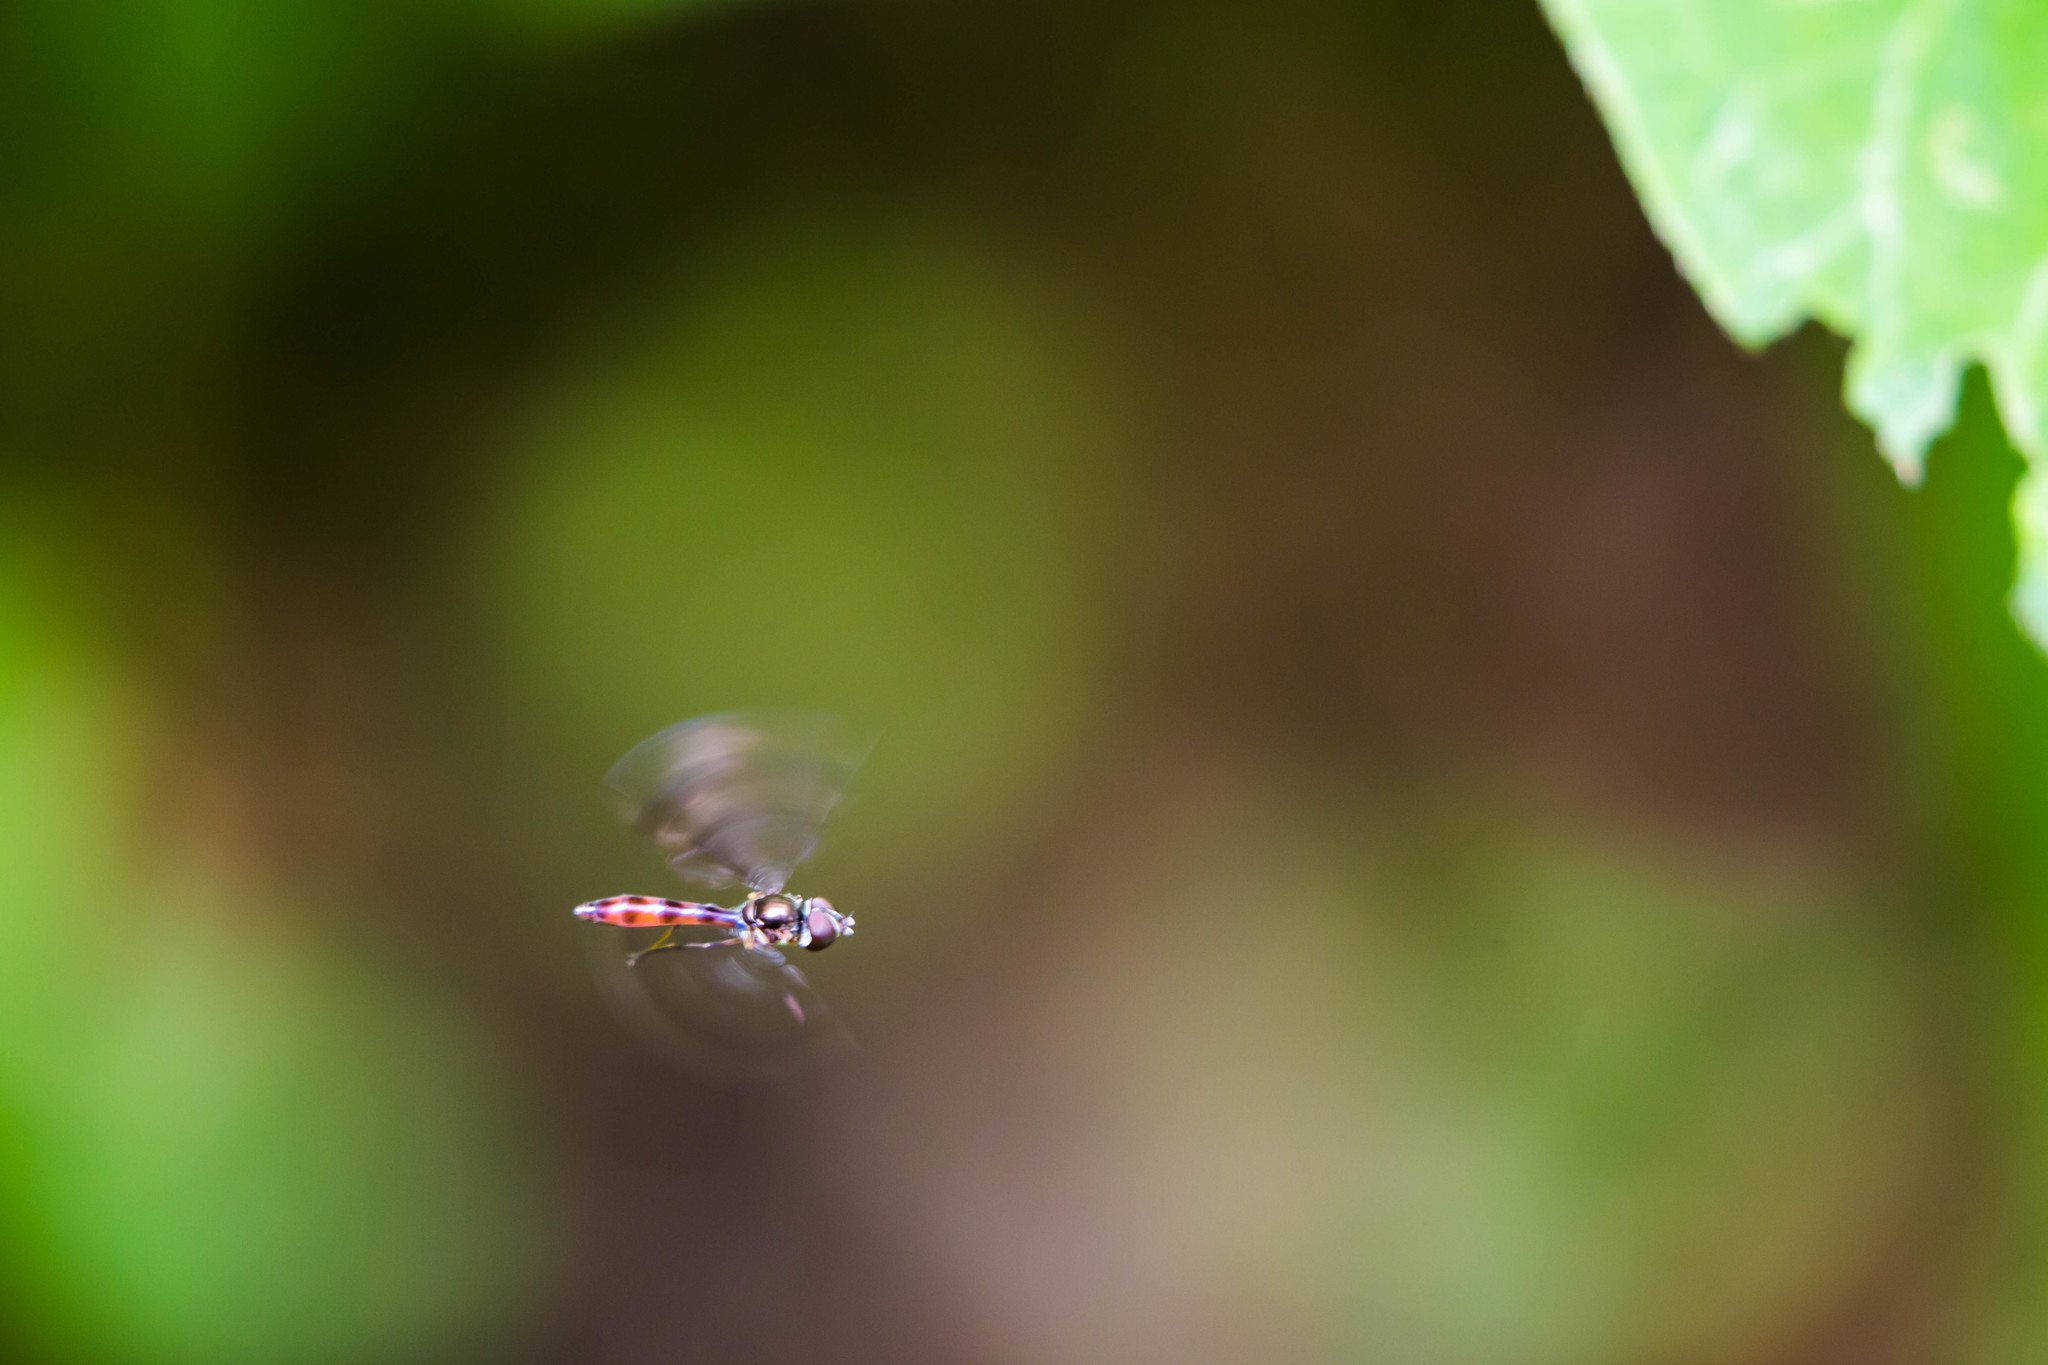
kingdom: Animalia
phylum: Arthropoda
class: Insecta
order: Diptera
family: Syrphidae
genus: Ocyptamus
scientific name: Ocyptamus fuscipennis
